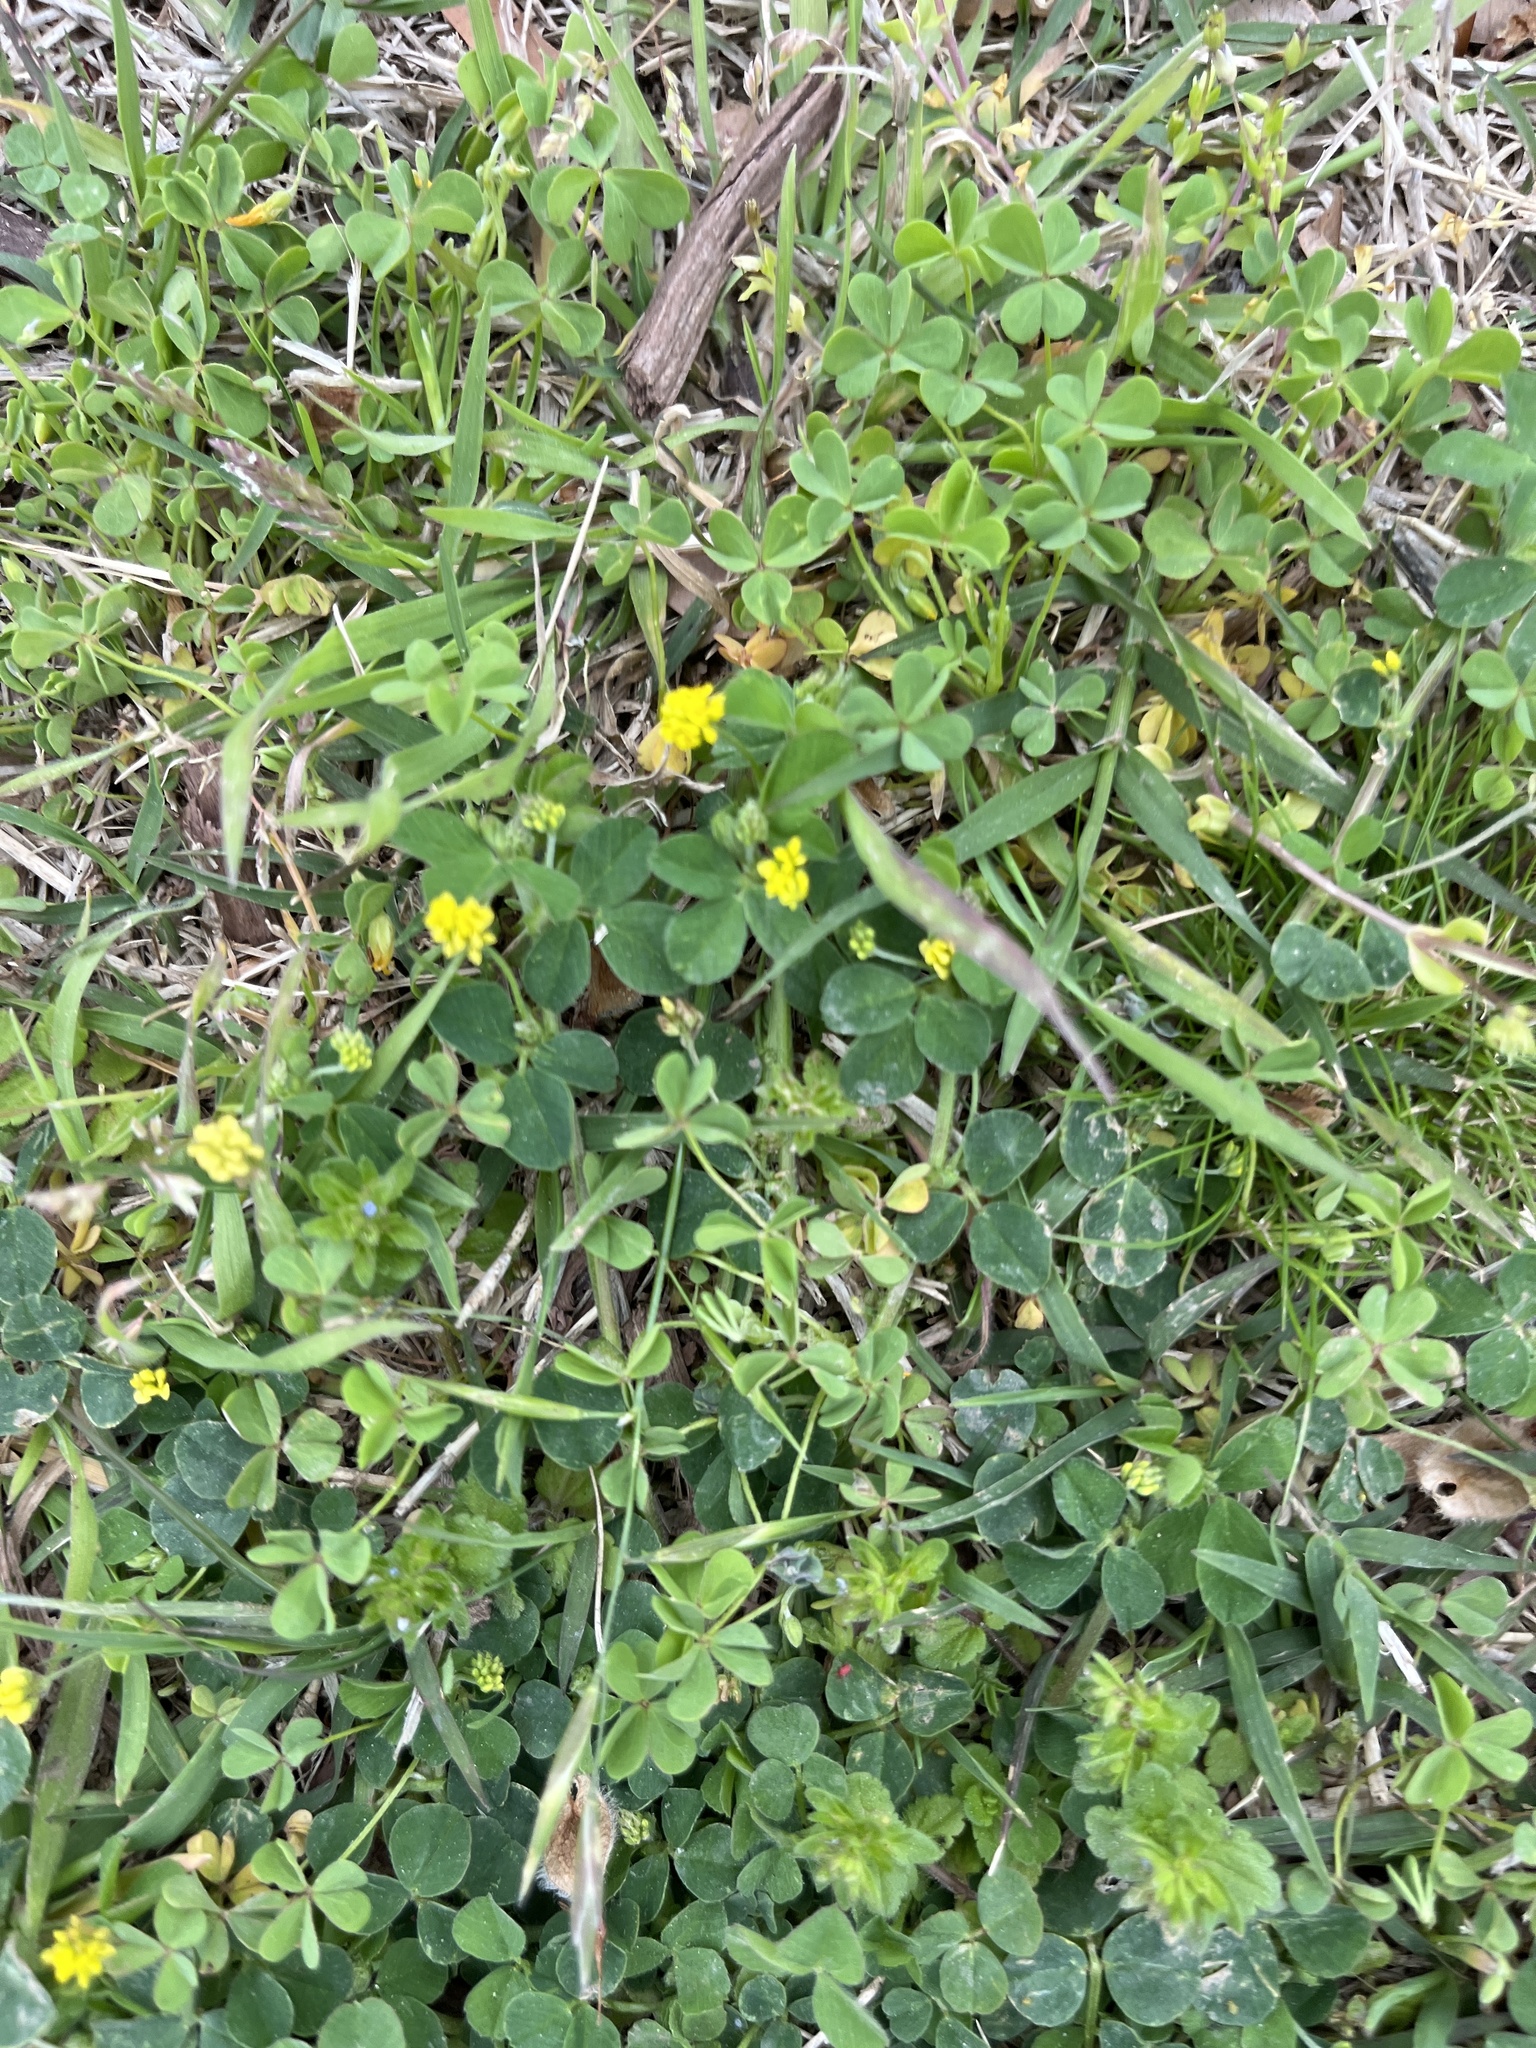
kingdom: Plantae
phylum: Tracheophyta
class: Magnoliopsida
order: Fabales
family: Fabaceae
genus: Medicago
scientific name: Medicago lupulina
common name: Black medick
